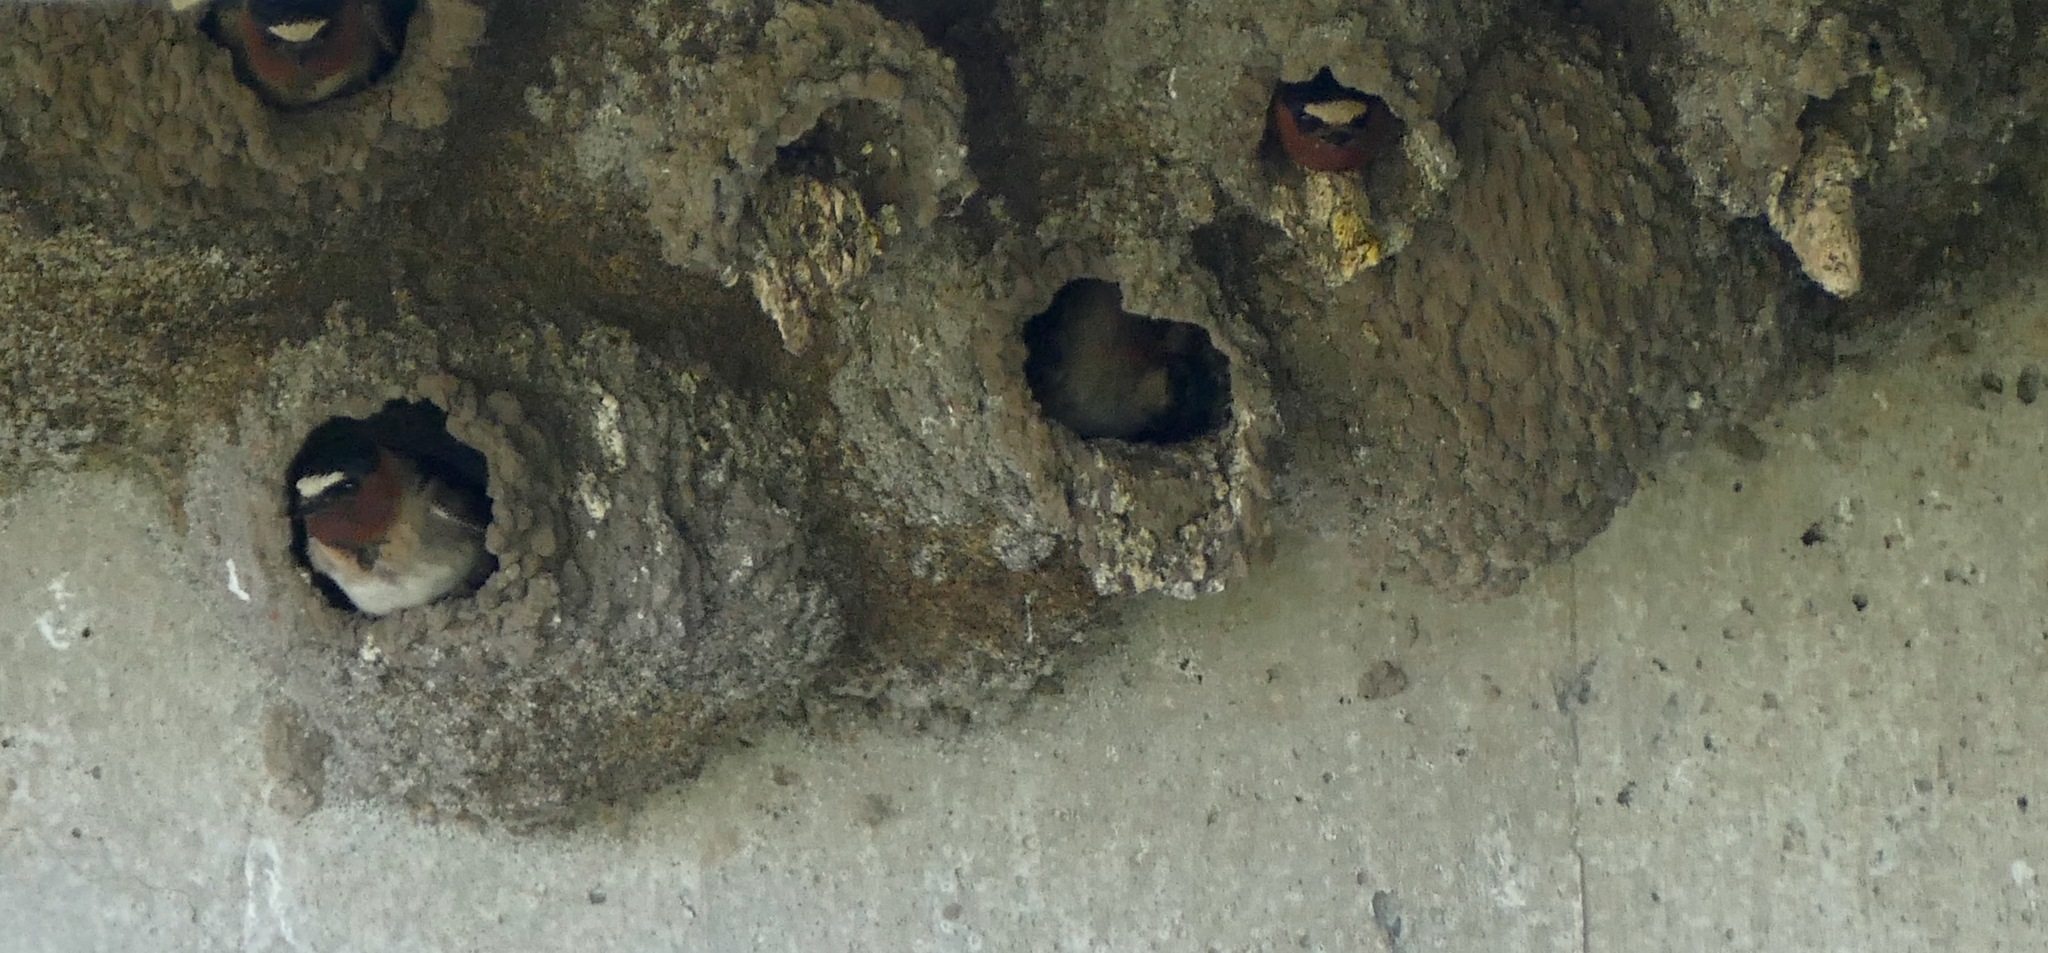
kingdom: Animalia
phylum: Chordata
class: Aves
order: Passeriformes
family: Hirundinidae
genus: Petrochelidon
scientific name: Petrochelidon pyrrhonota
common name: American cliff swallow
